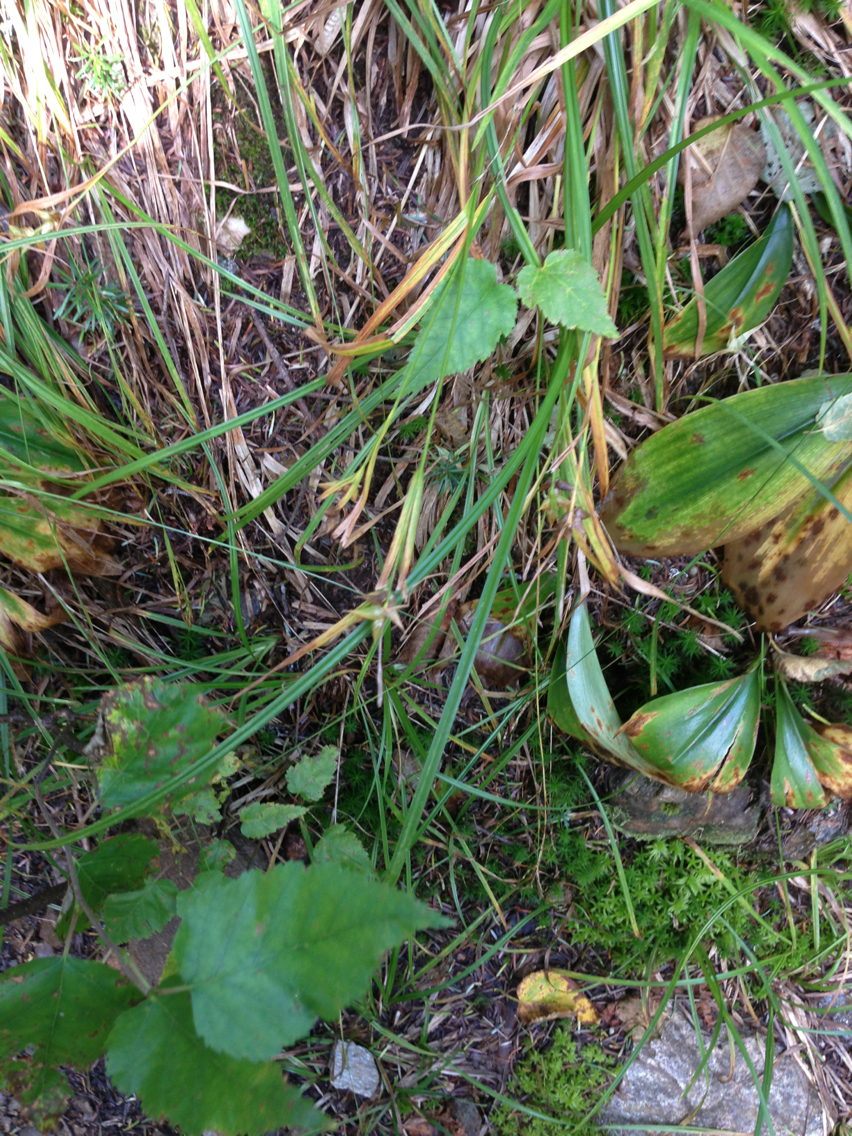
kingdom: Plantae
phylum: Tracheophyta
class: Liliopsida
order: Poales
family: Cyperaceae
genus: Carex
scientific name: Carex intumescens
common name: Greater bladder sedge
